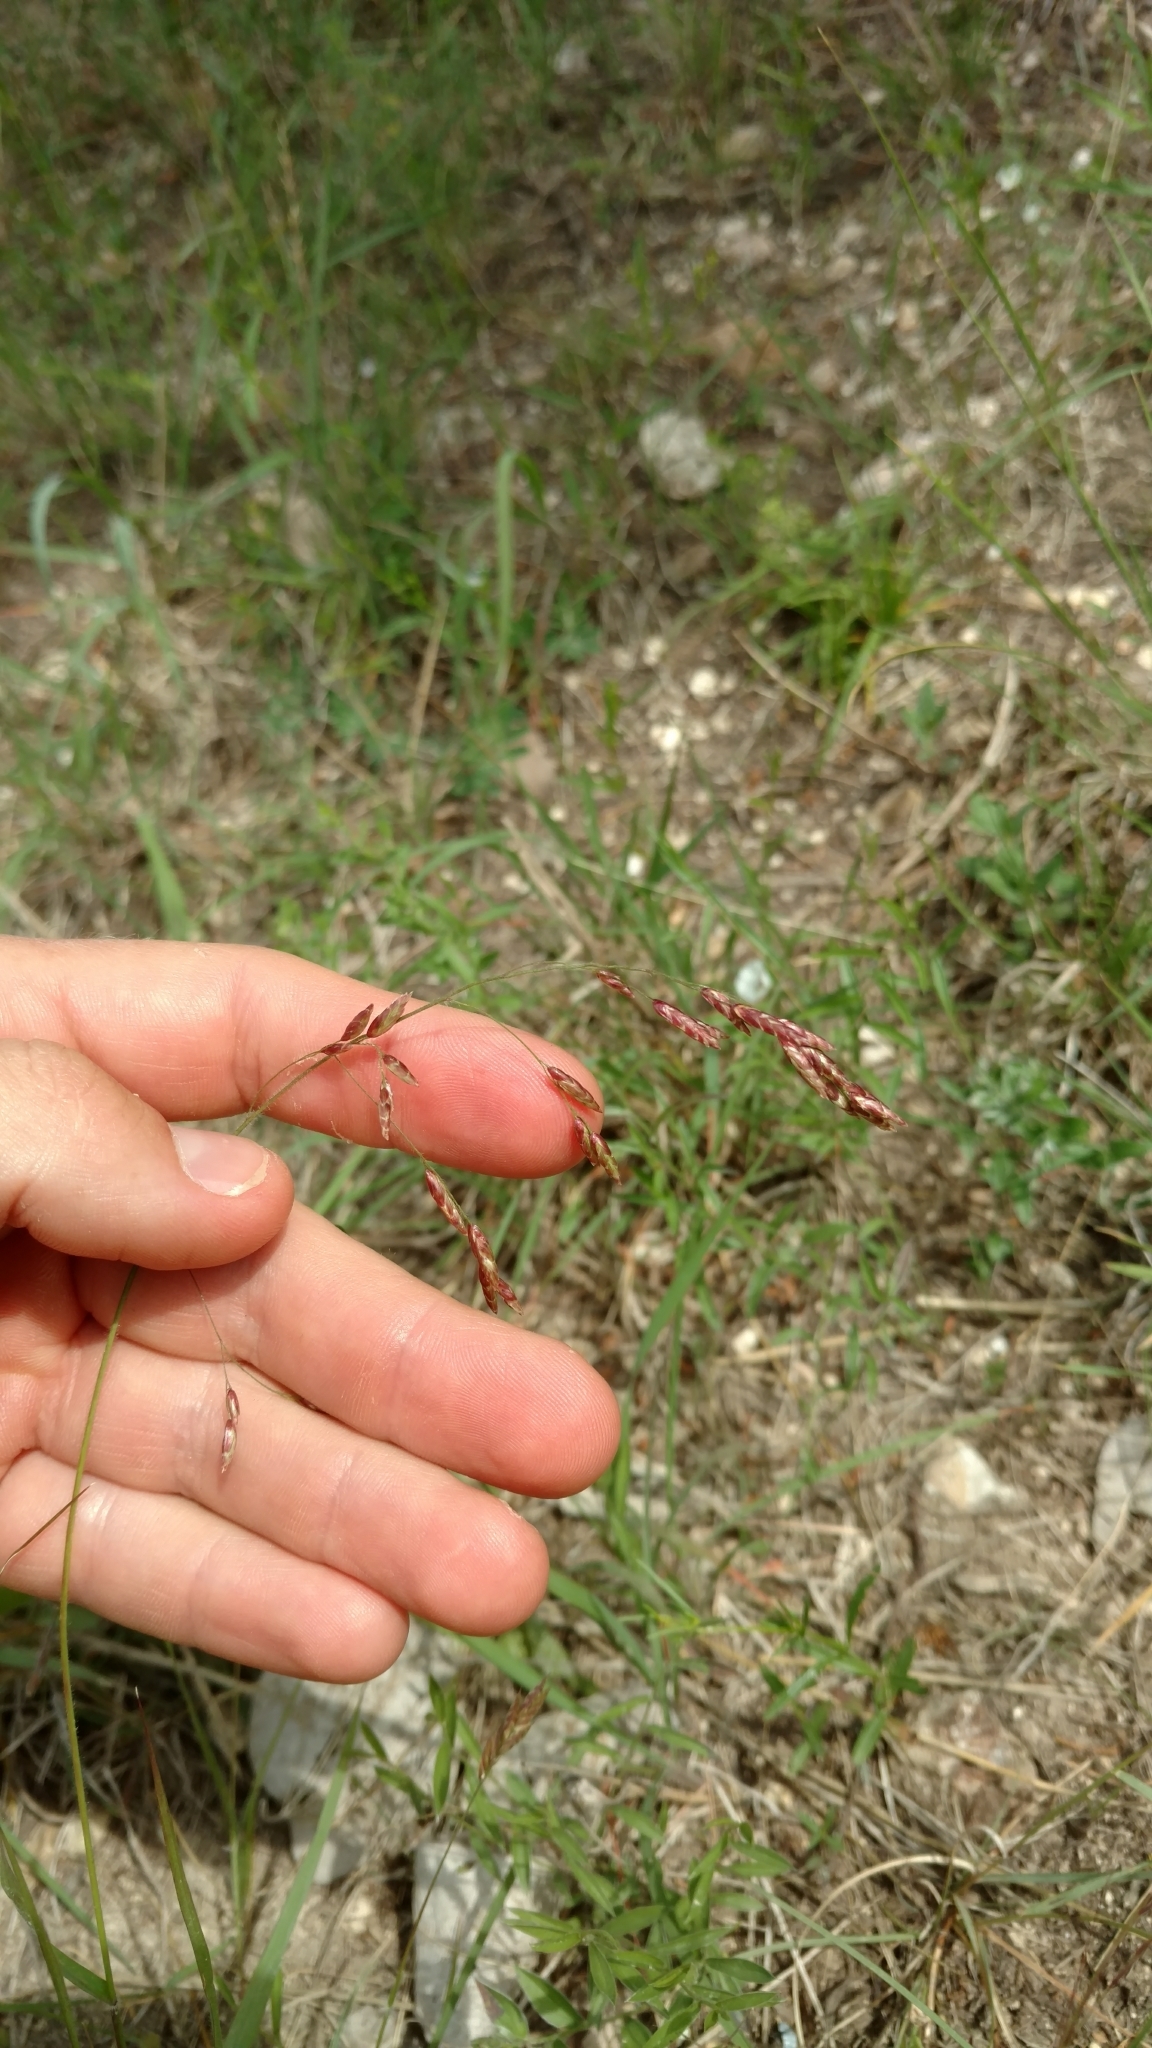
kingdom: Plantae
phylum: Tracheophyta
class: Liliopsida
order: Poales
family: Poaceae
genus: Tridens
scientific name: Tridens texanus
